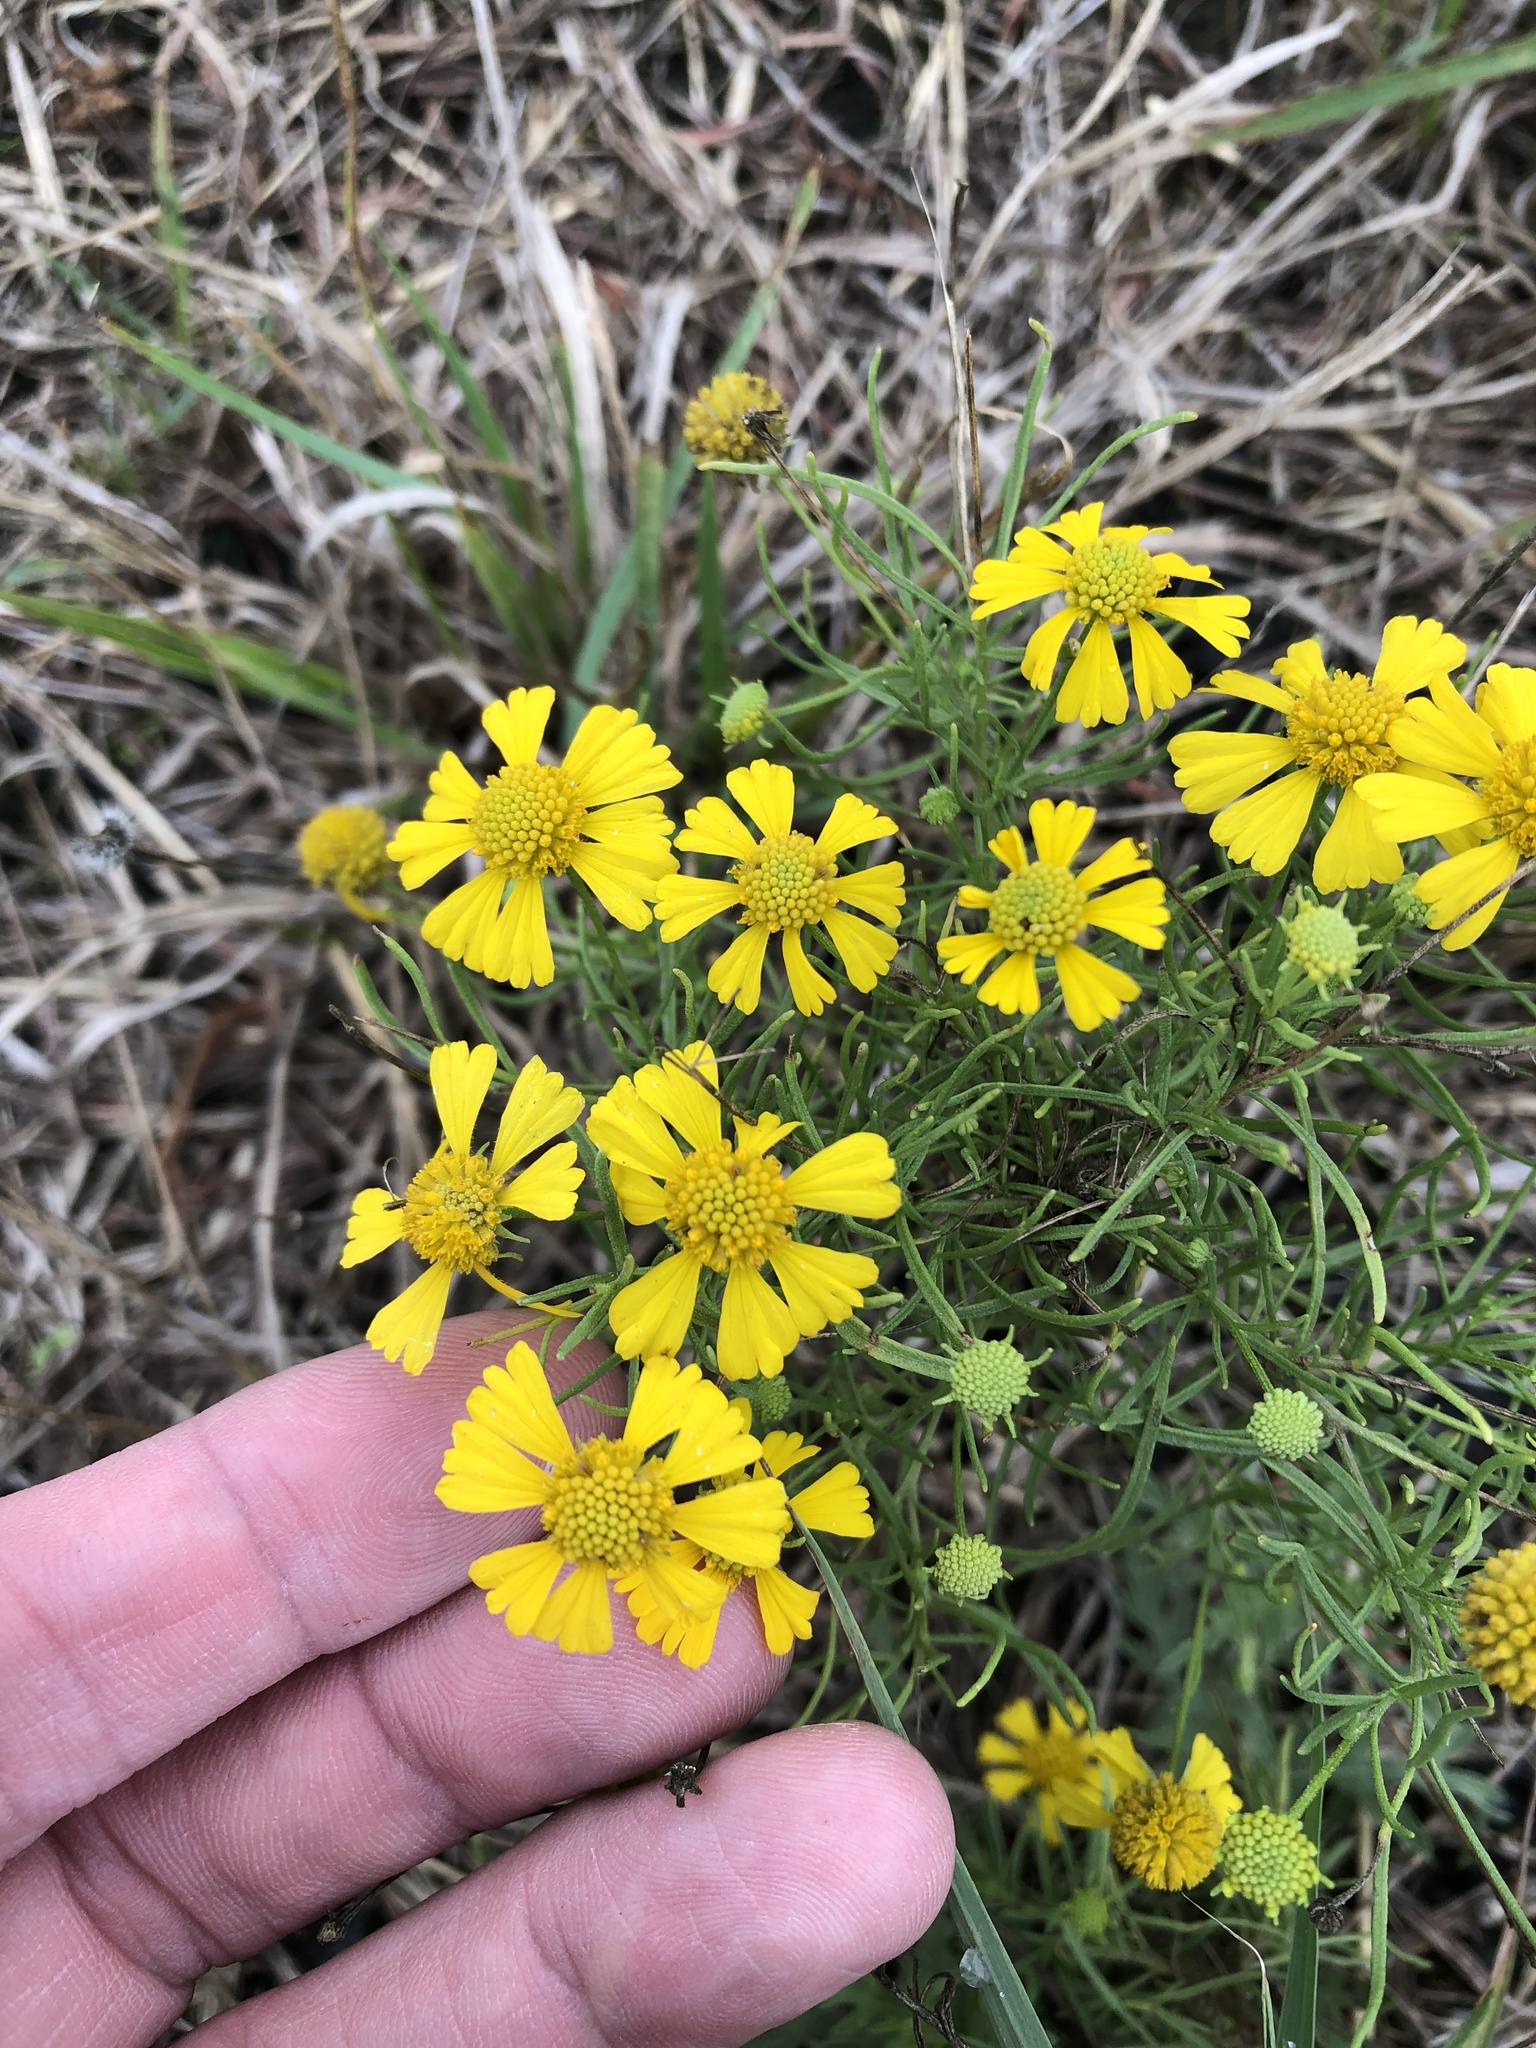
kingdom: Plantae
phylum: Tracheophyta
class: Magnoliopsida
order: Asterales
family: Asteraceae
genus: Helenium
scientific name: Helenium amarum
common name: Bitter sneezeweed
